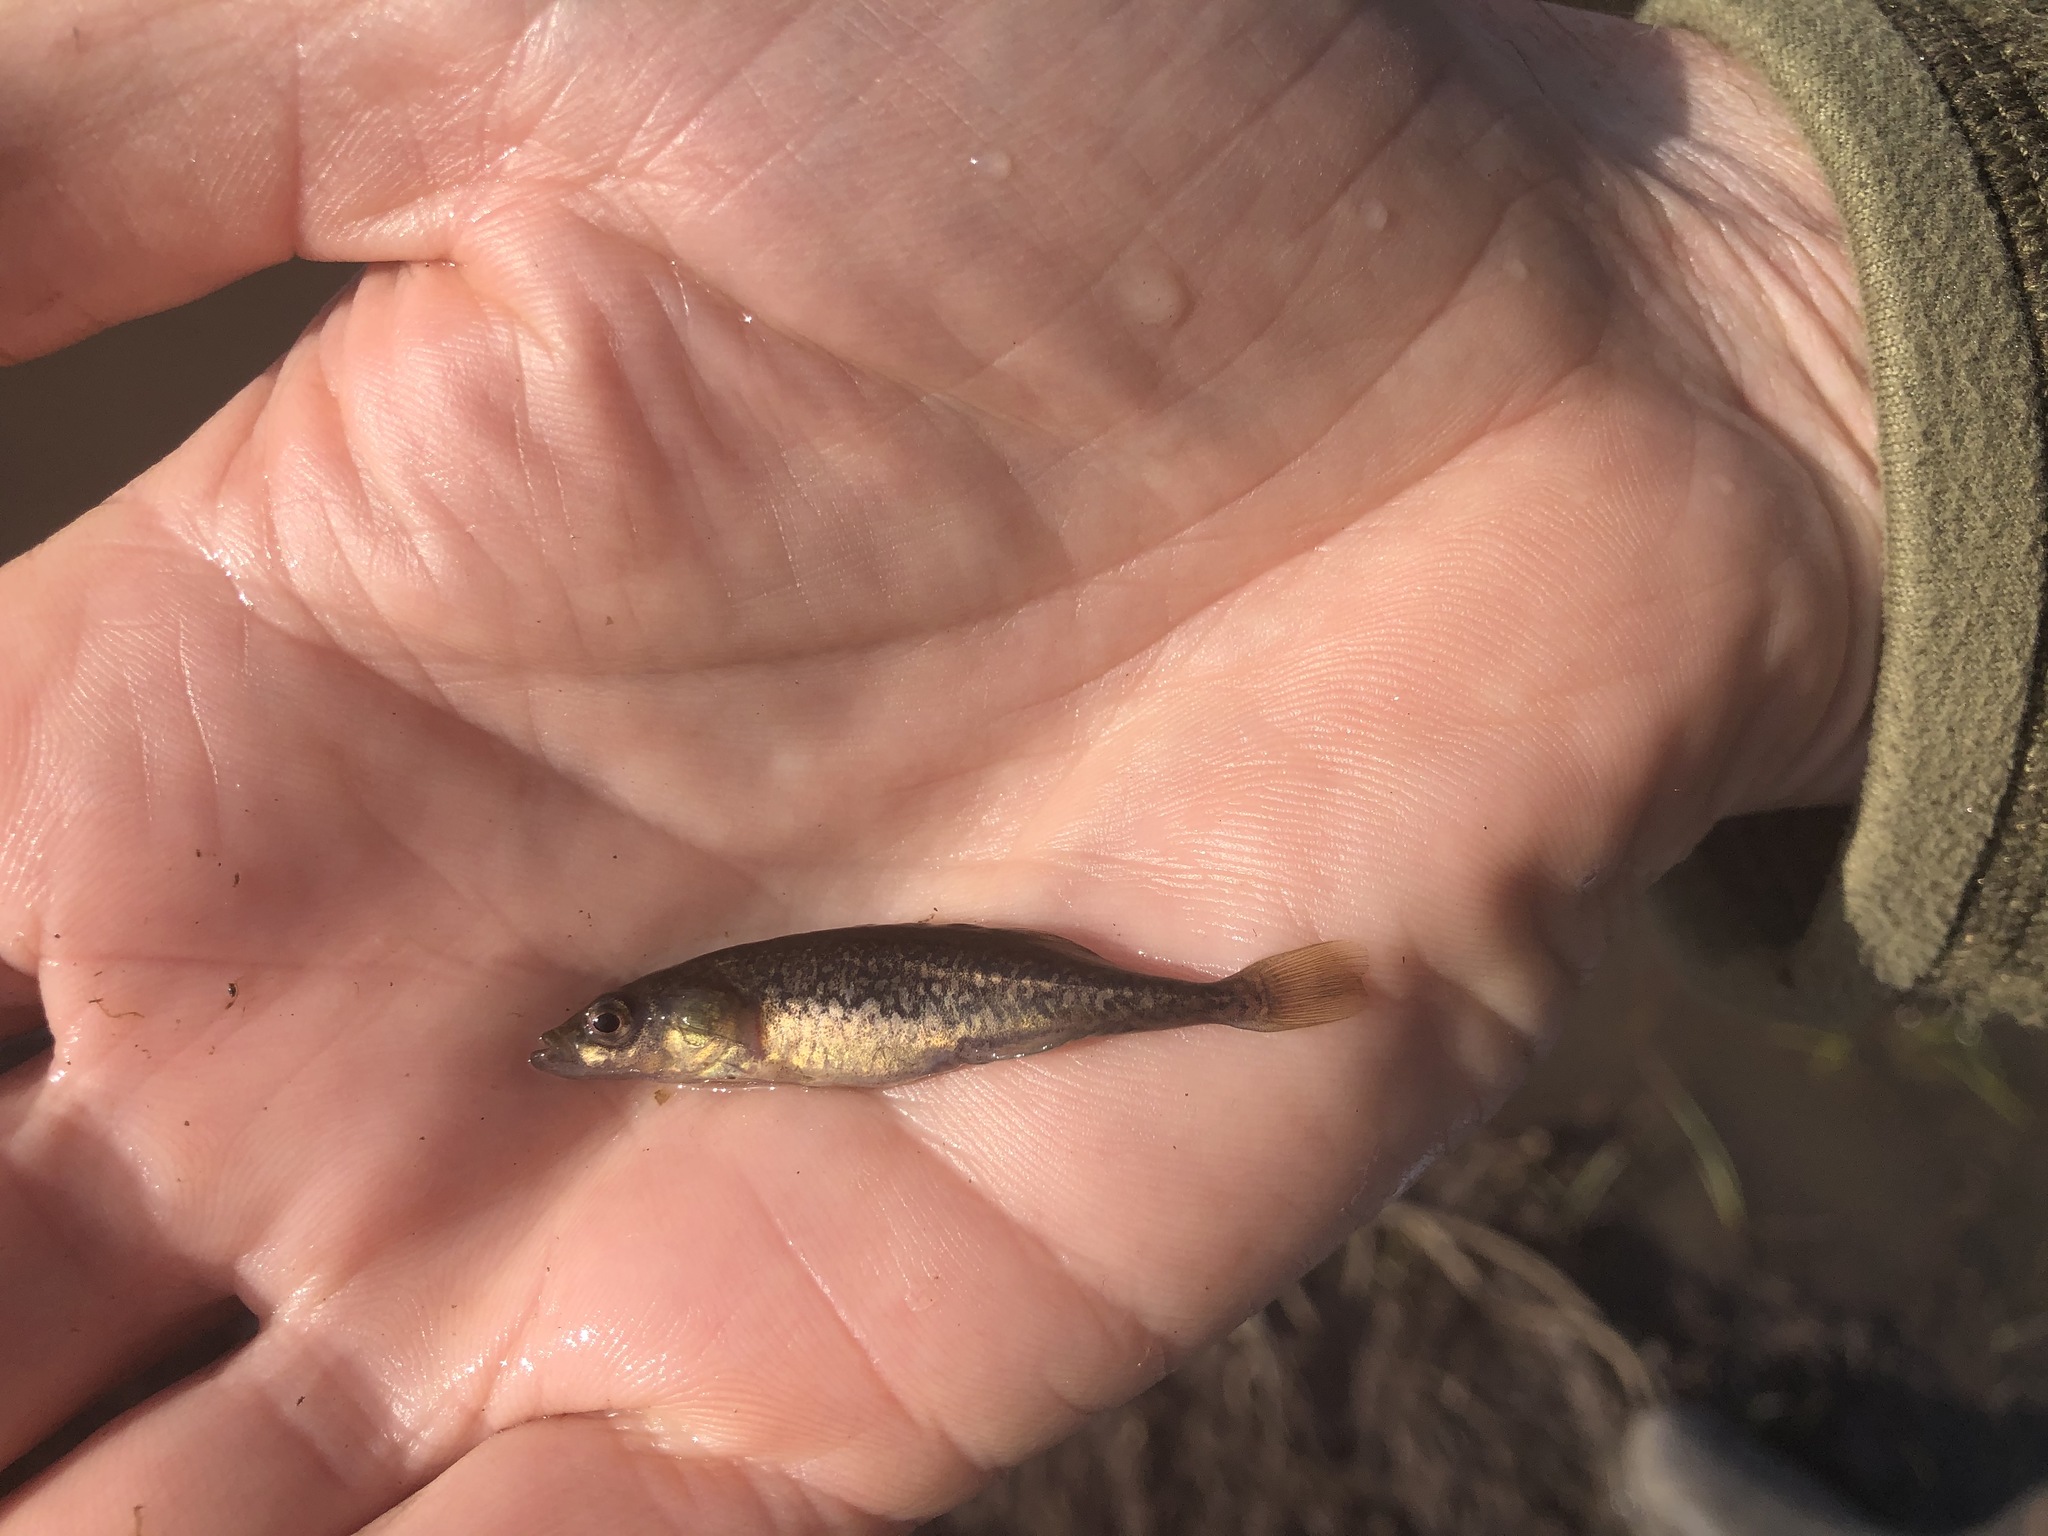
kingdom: Animalia
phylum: Chordata
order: Gasterosteiformes
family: Gasterosteidae
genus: Culaea
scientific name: Culaea inconstans
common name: Brook stickleback
